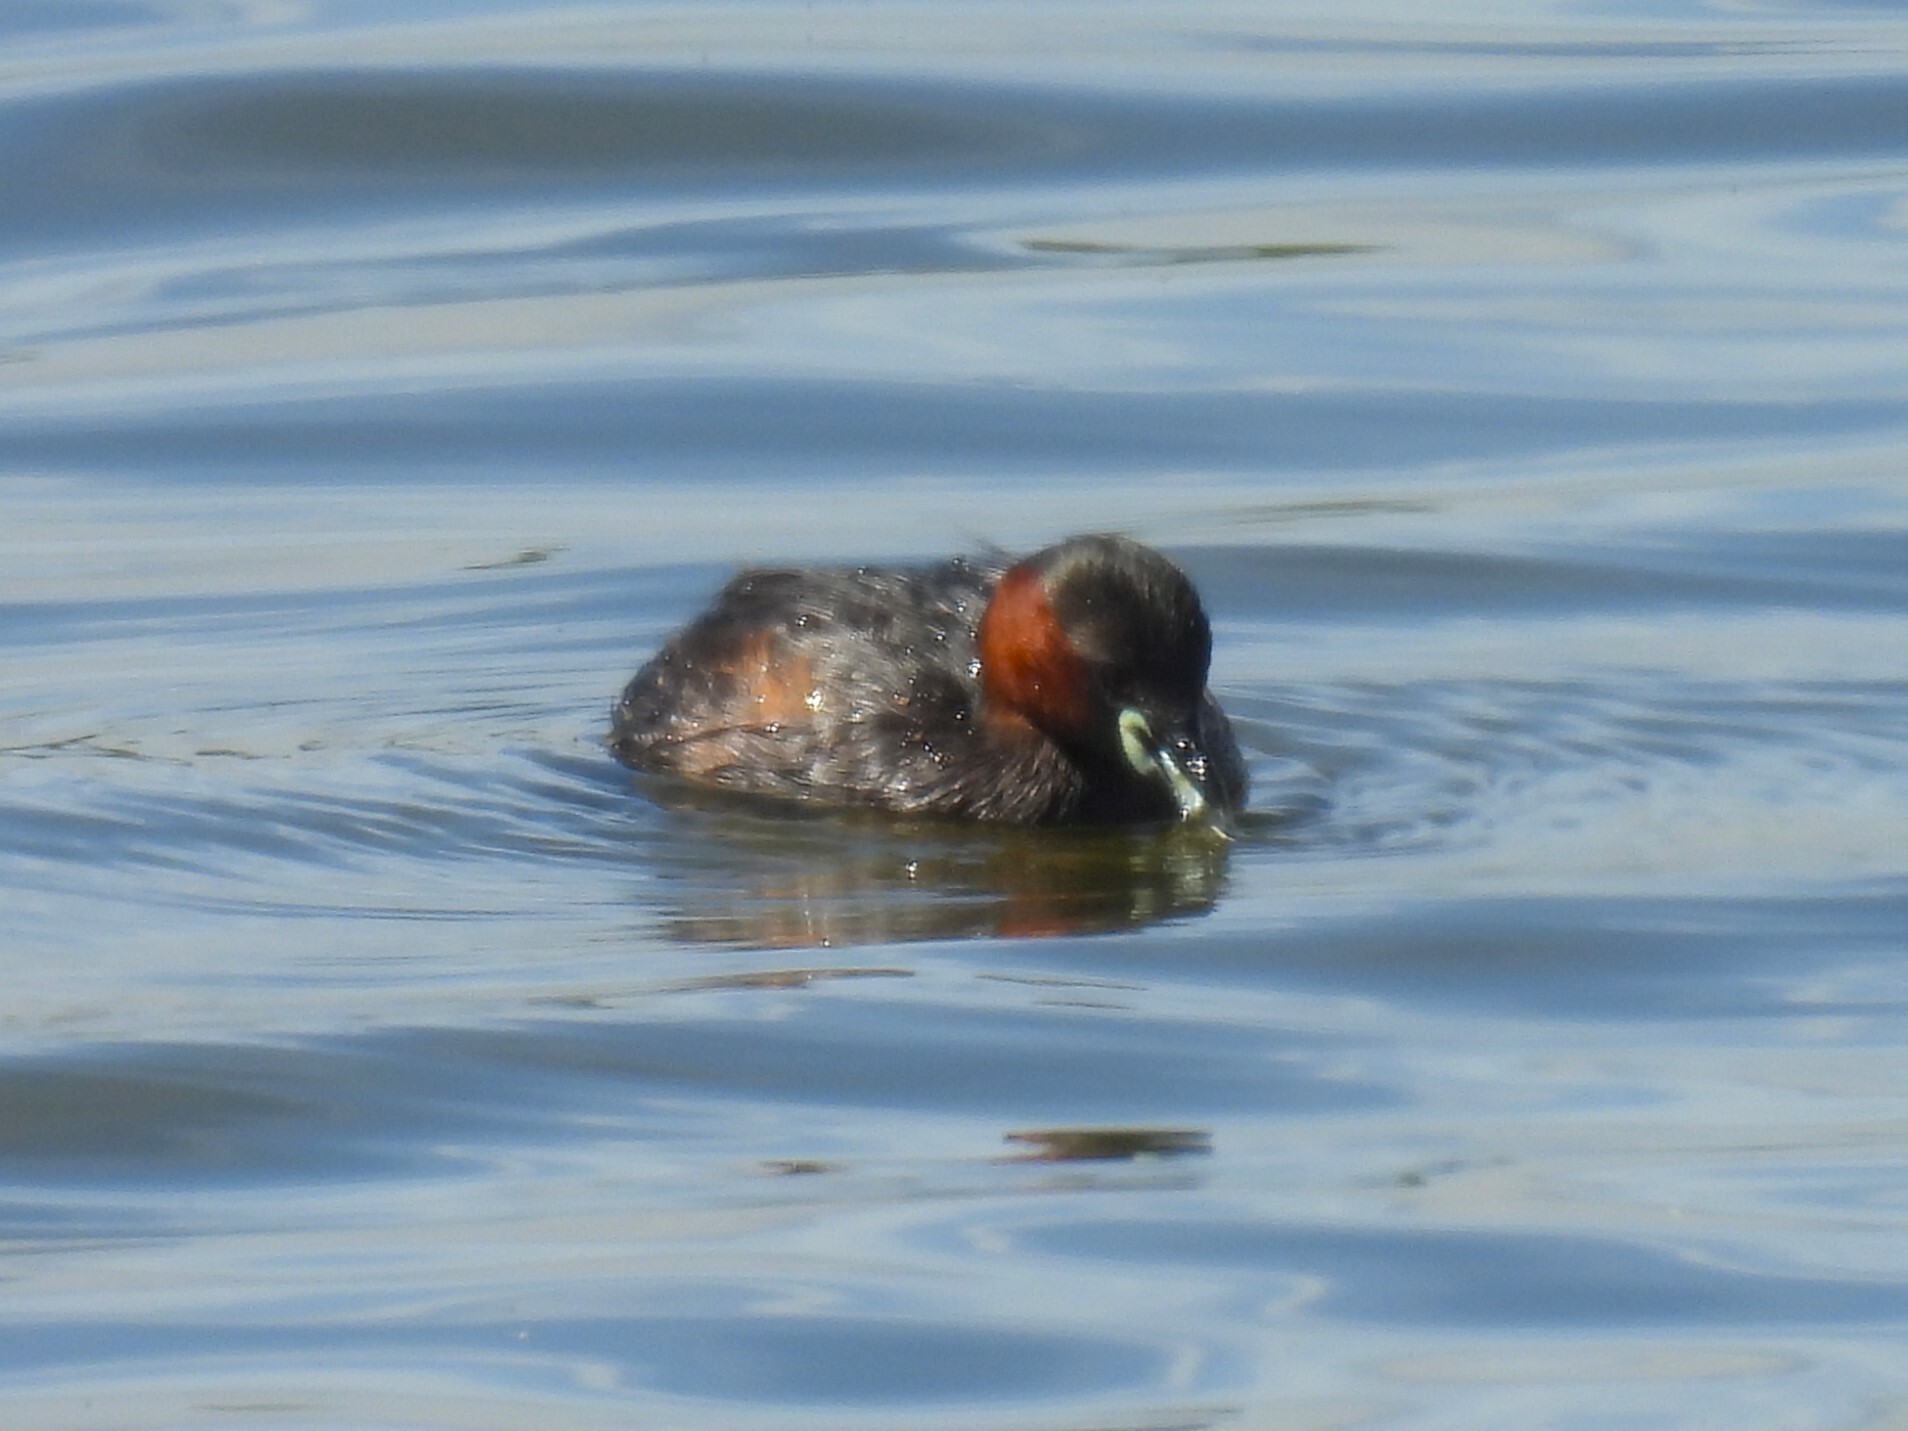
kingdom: Animalia
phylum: Chordata
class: Aves
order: Podicipediformes
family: Podicipedidae
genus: Tachybaptus
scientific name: Tachybaptus ruficollis
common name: Little grebe
